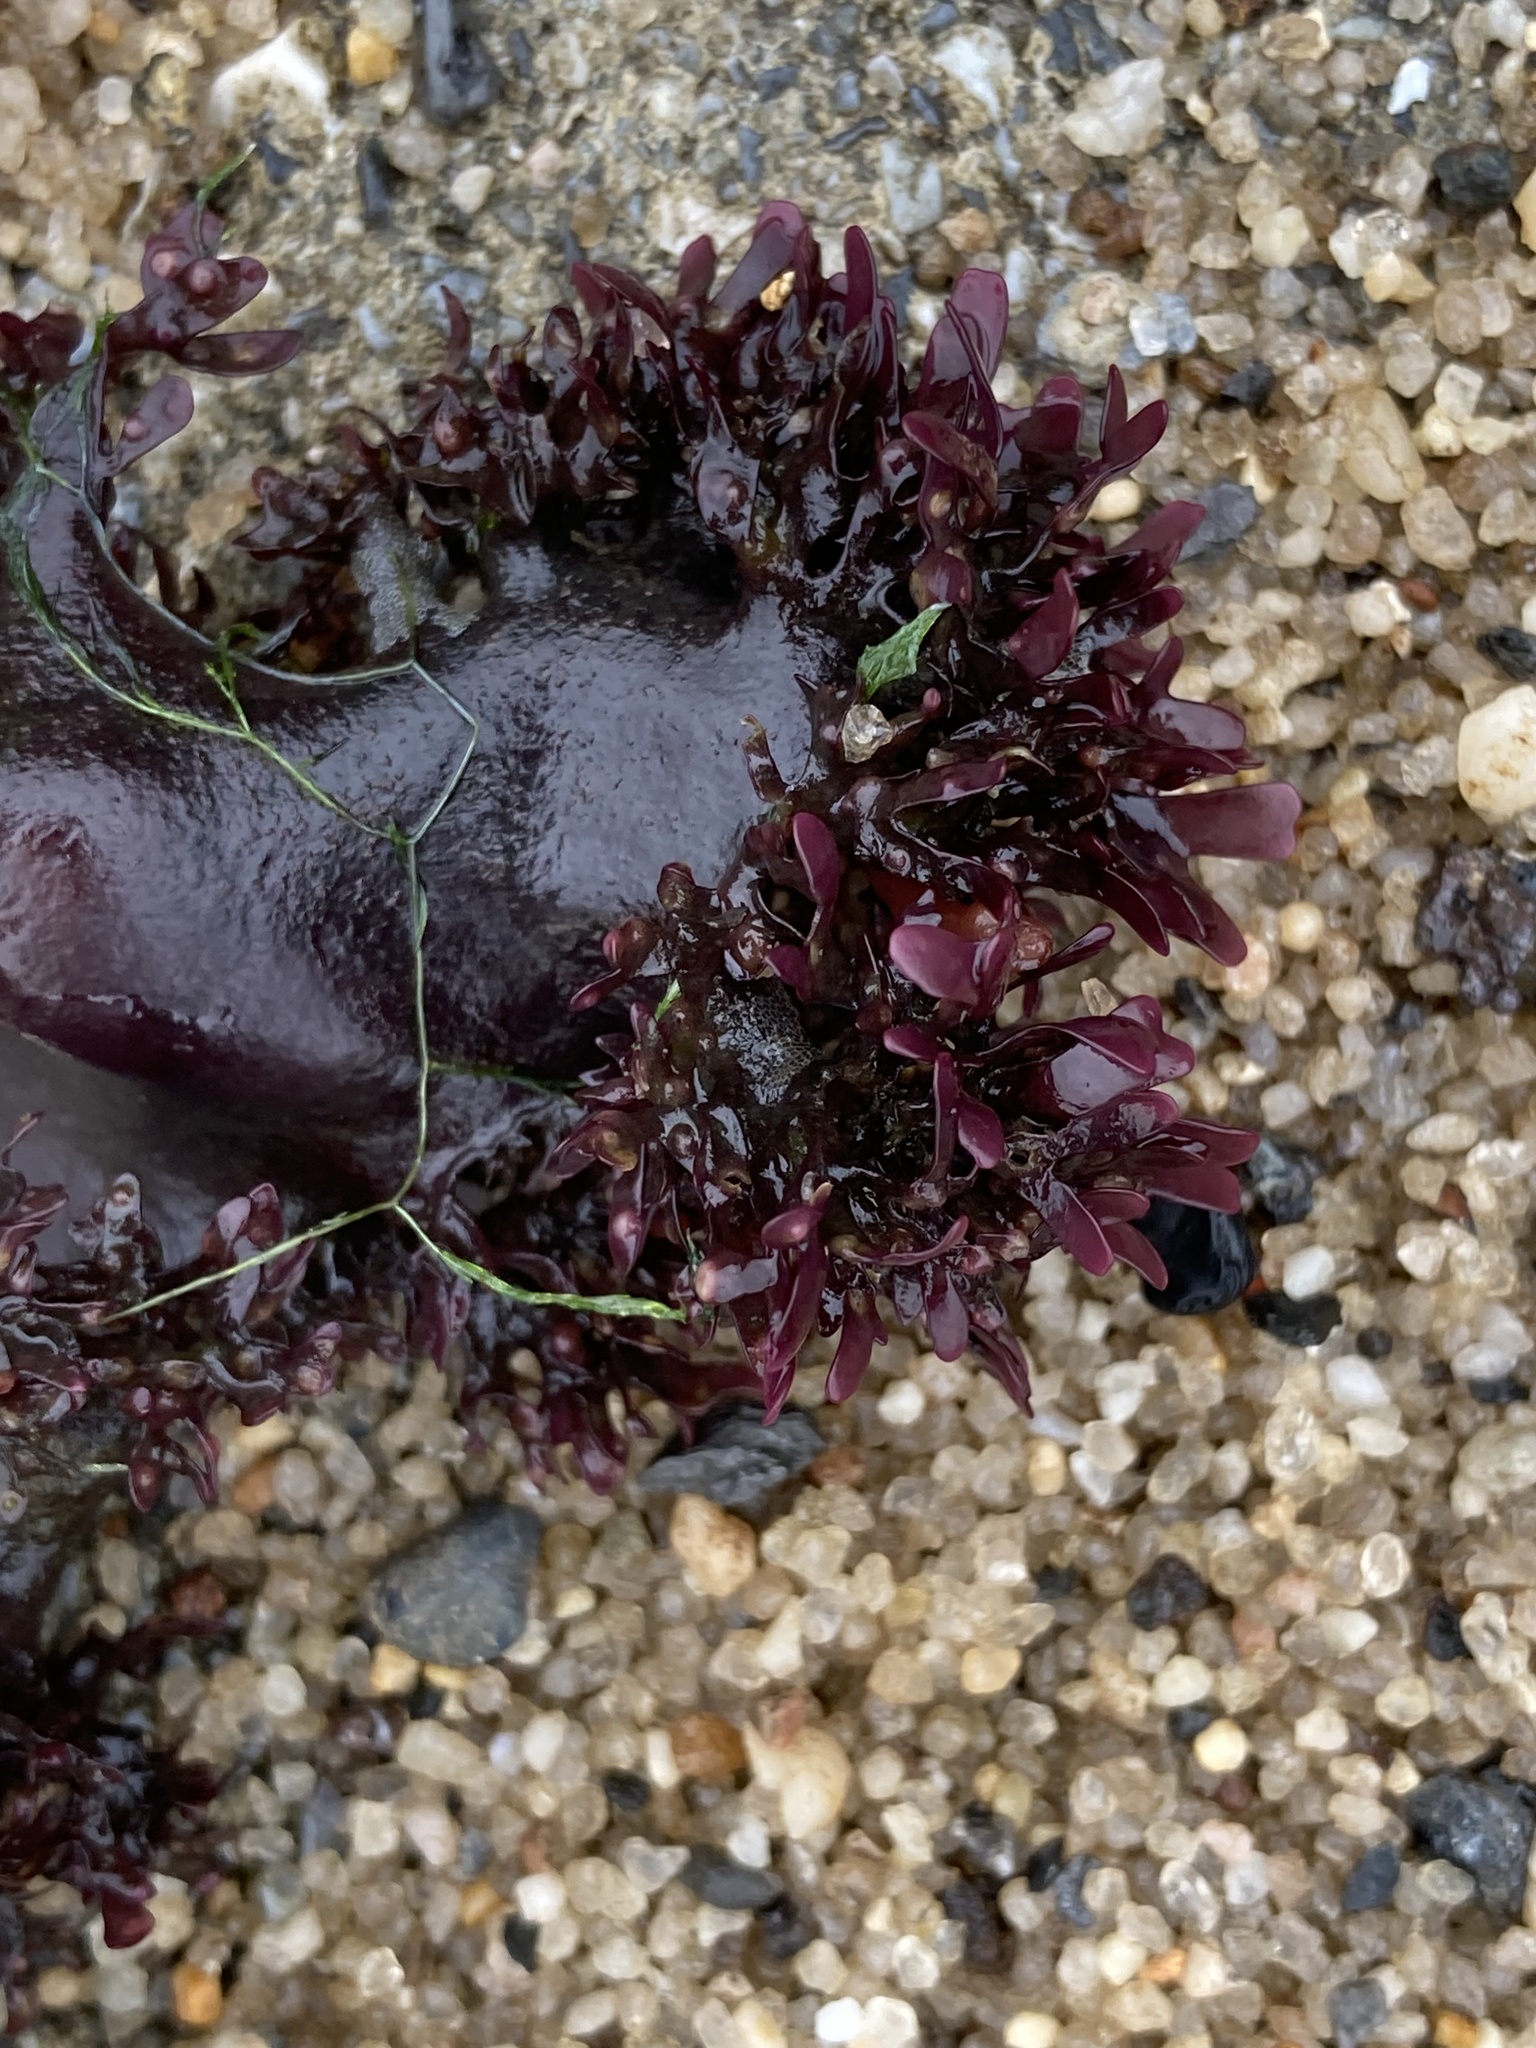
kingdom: Plantae
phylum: Rhodophyta
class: Florideophyceae
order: Gigartinales
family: Gigartinaceae
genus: Chondrus
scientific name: Chondrus crispus
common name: Carrageen
